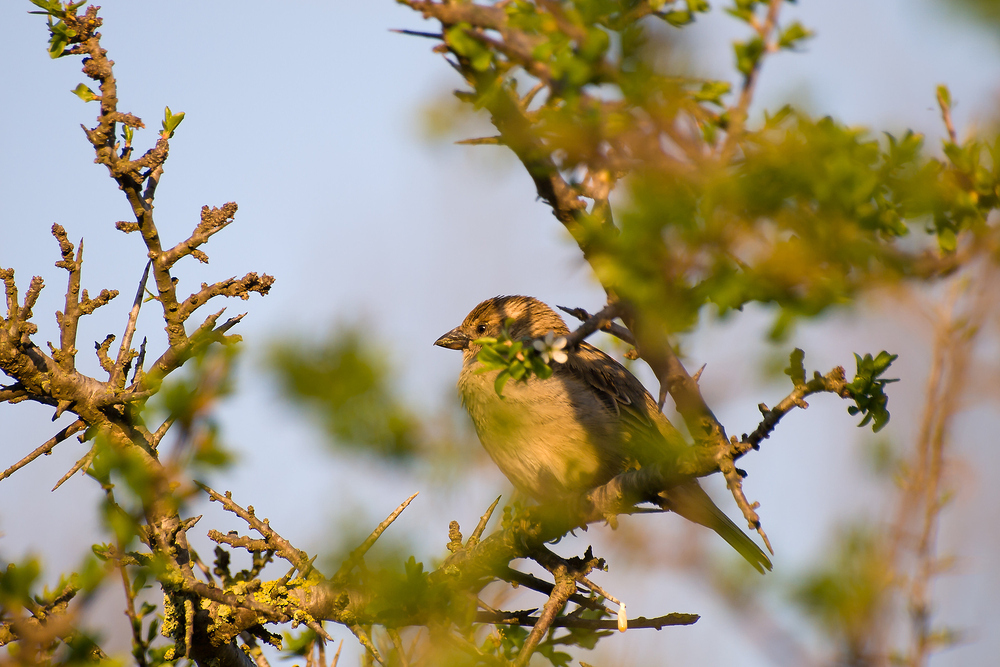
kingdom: Animalia
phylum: Chordata
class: Aves
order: Passeriformes
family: Passeridae
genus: Passer
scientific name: Passer domesticus
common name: House sparrow
